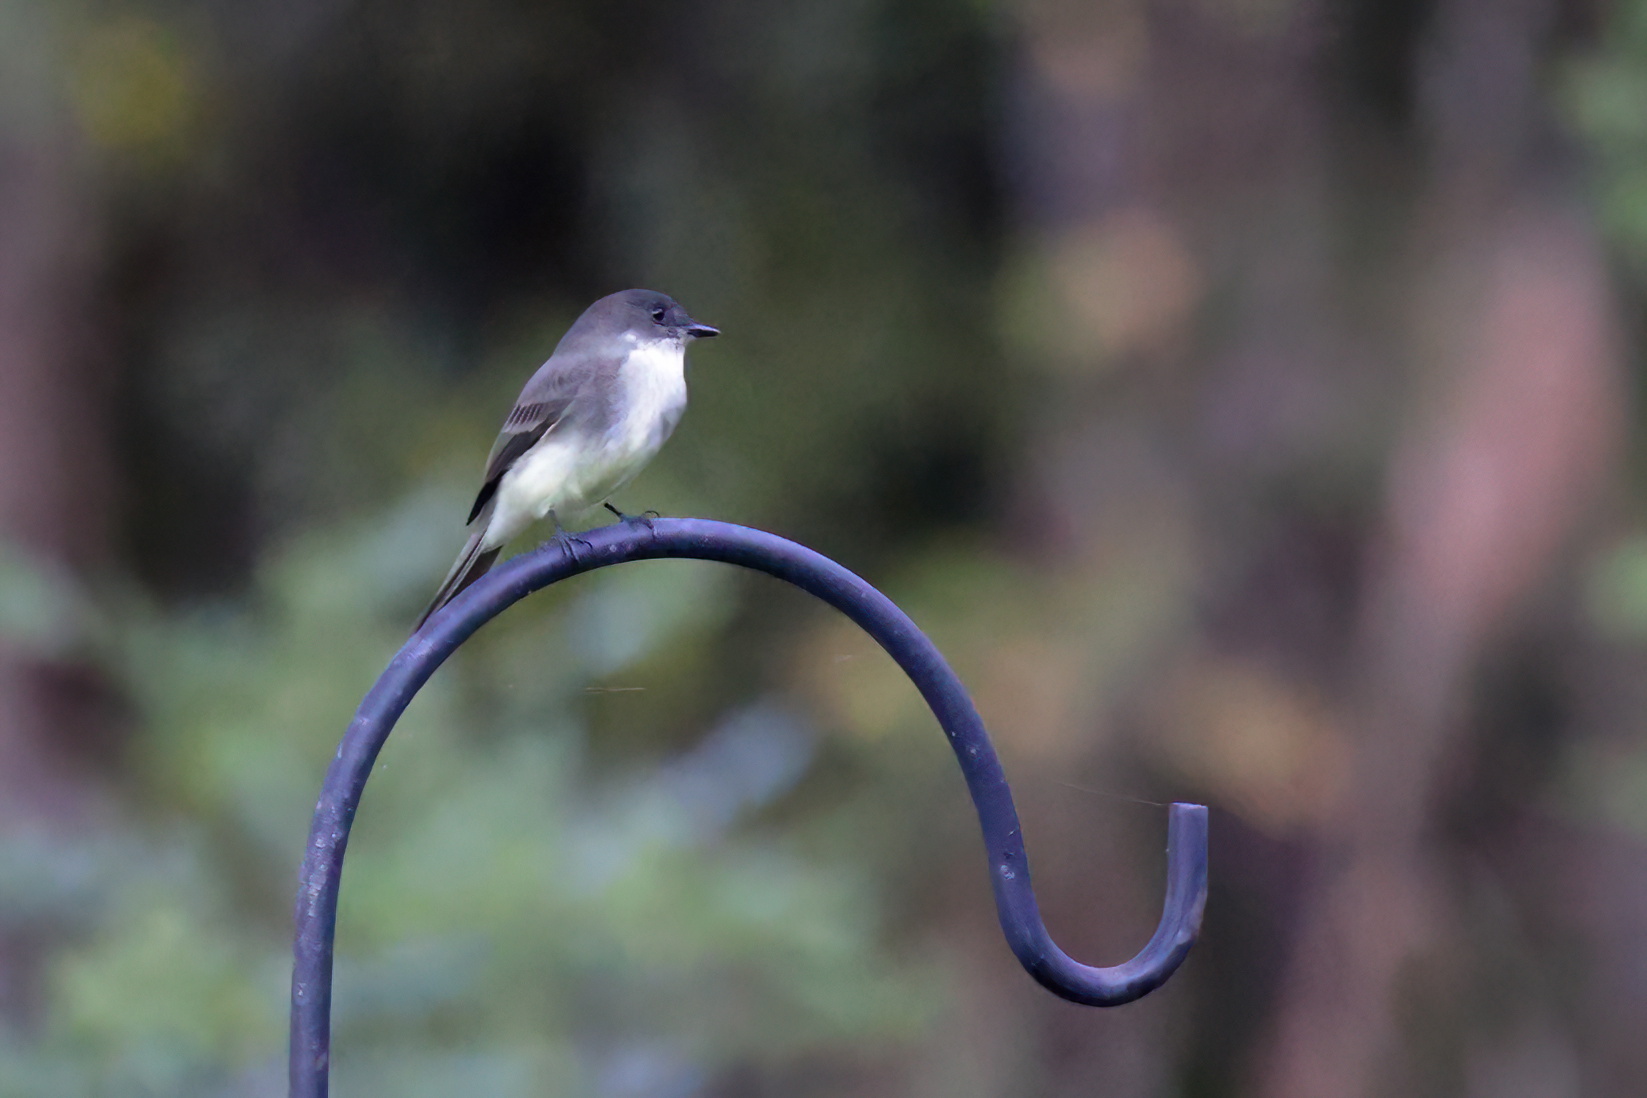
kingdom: Animalia
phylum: Chordata
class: Aves
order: Passeriformes
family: Tyrannidae
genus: Sayornis
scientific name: Sayornis phoebe
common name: Eastern phoebe
